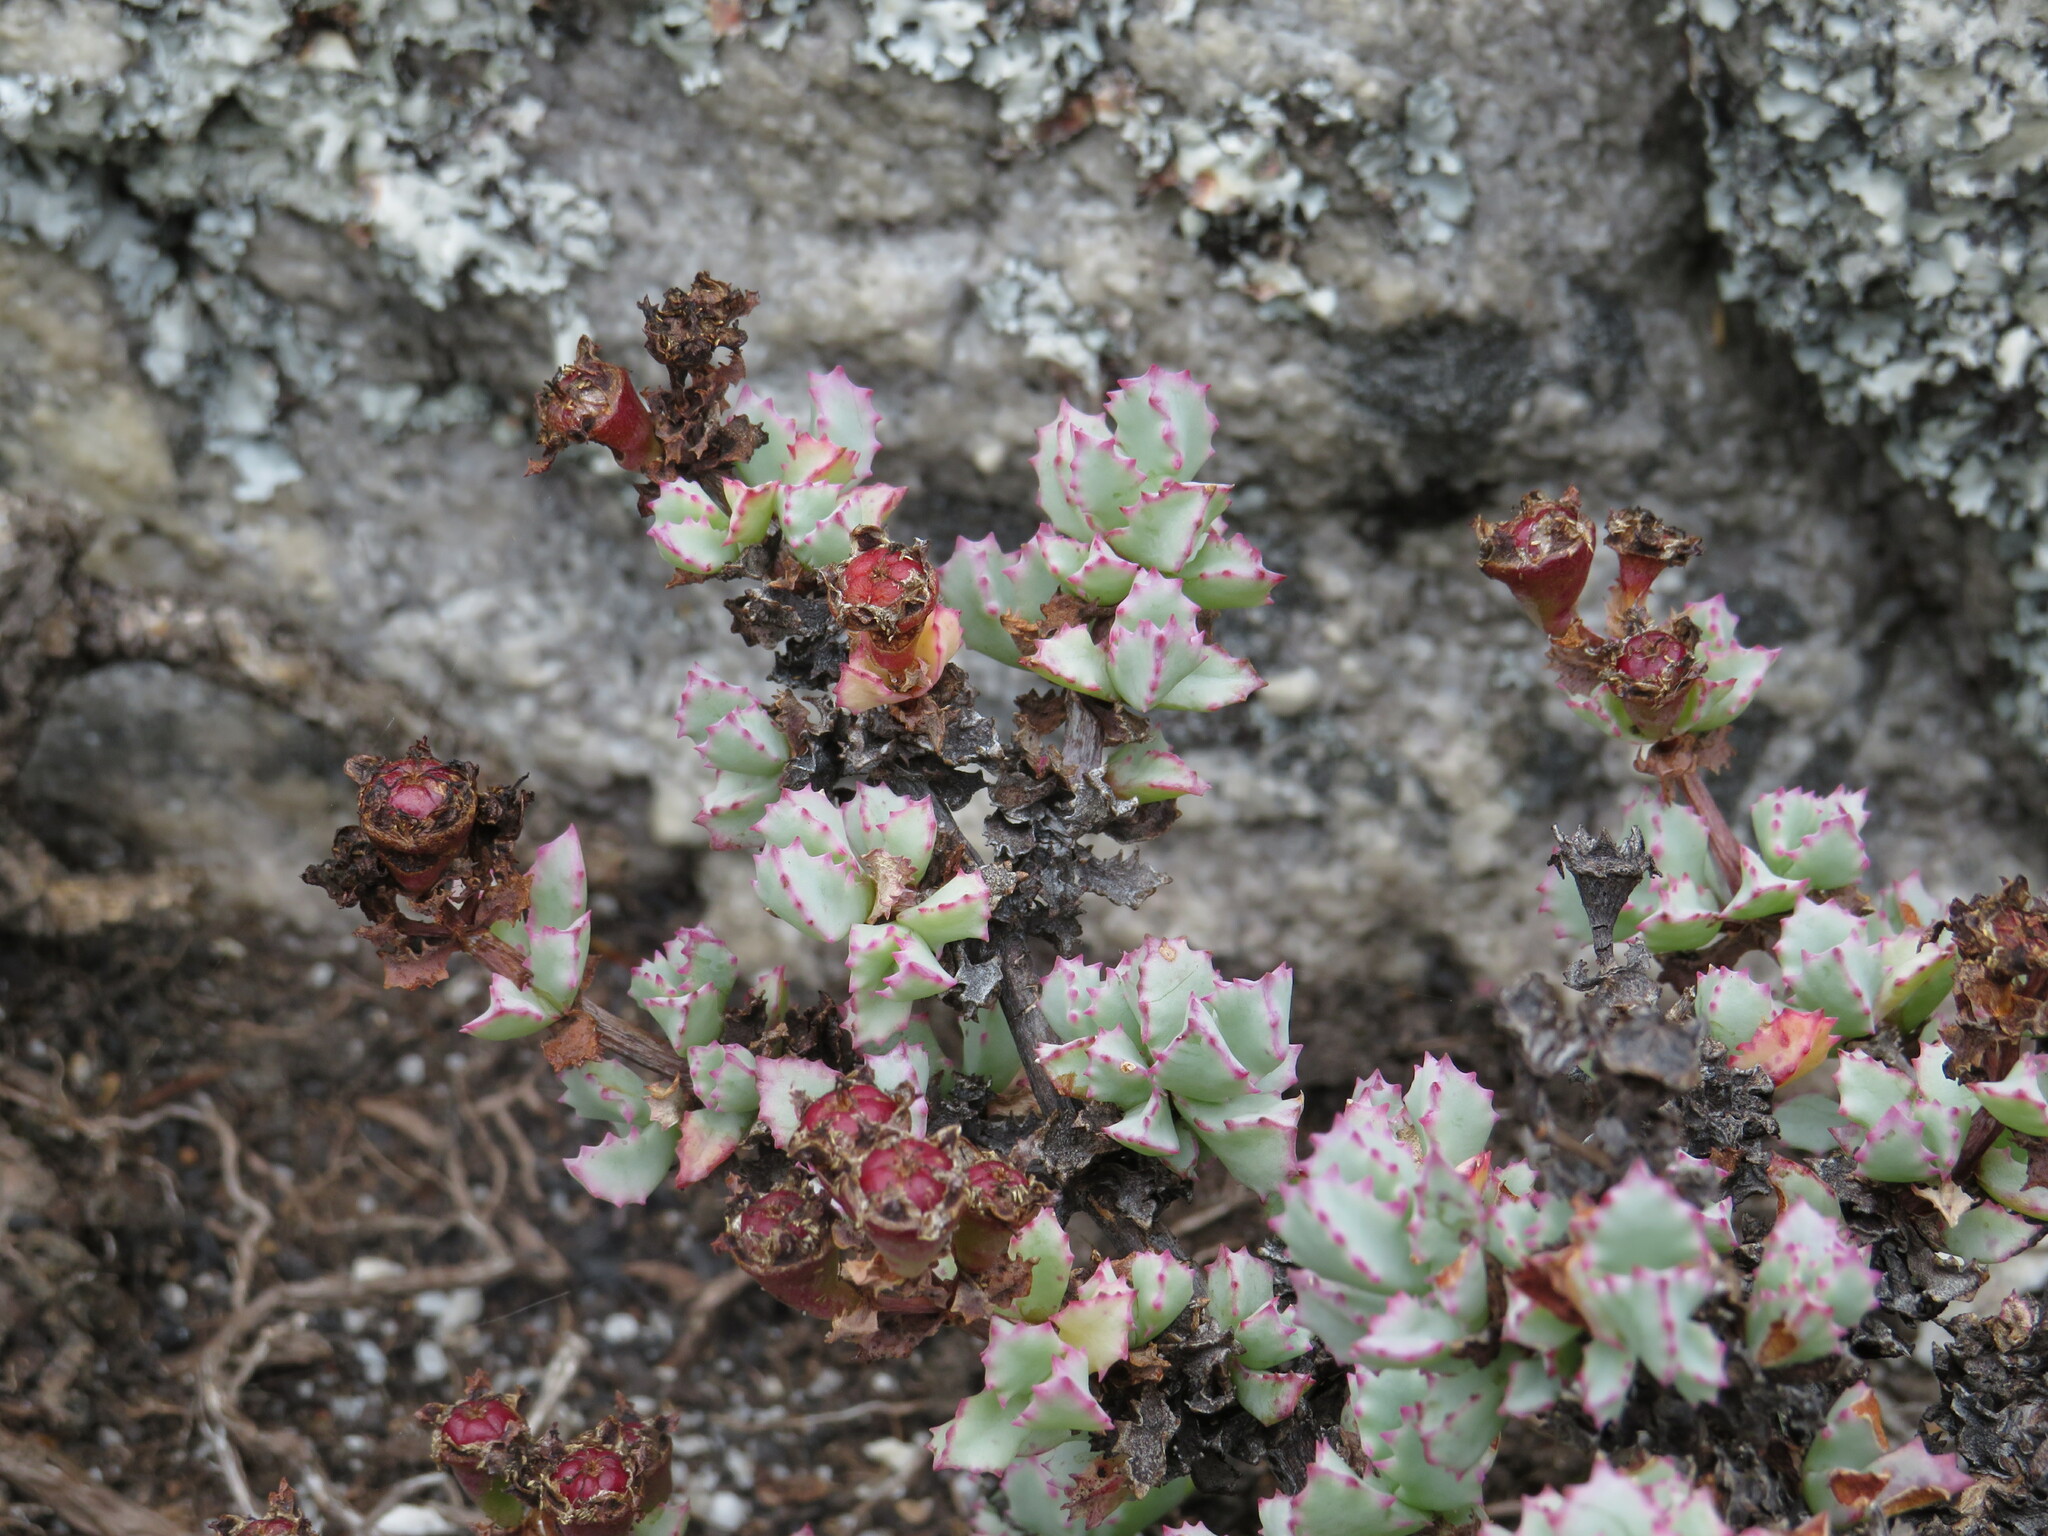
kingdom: Plantae
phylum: Tracheophyta
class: Magnoliopsida
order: Caryophyllales
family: Aizoaceae
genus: Oscularia
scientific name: Oscularia deltoides
